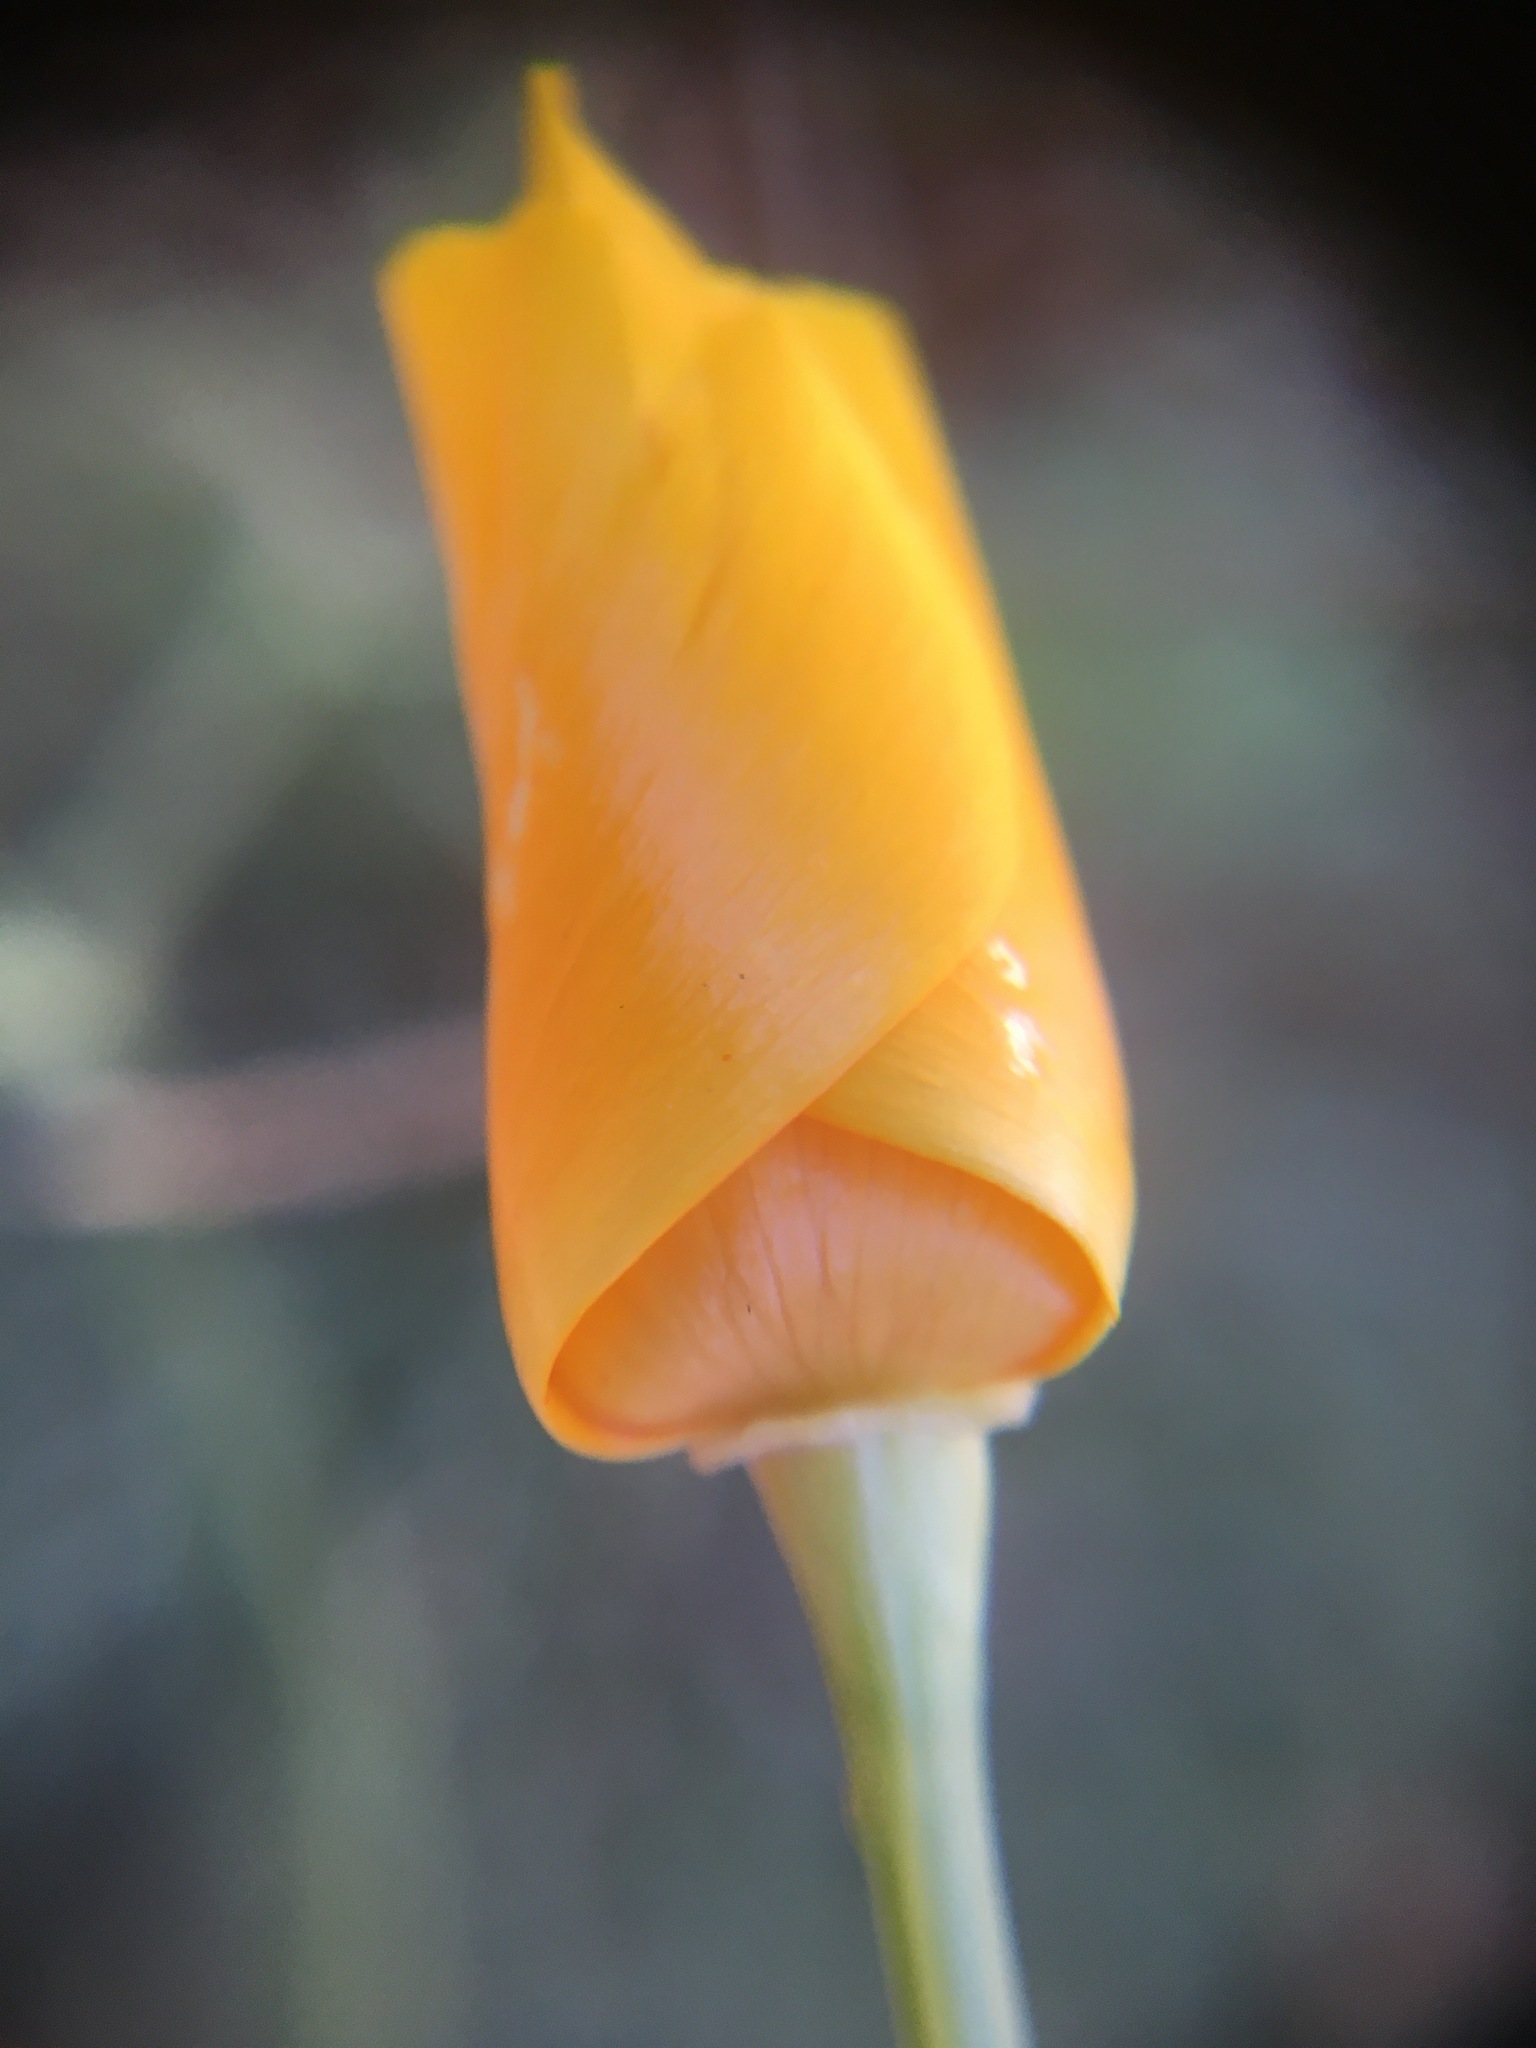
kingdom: Plantae
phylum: Tracheophyta
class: Magnoliopsida
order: Ranunculales
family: Papaveraceae
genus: Eschscholzia
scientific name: Eschscholzia californica
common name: California poppy
